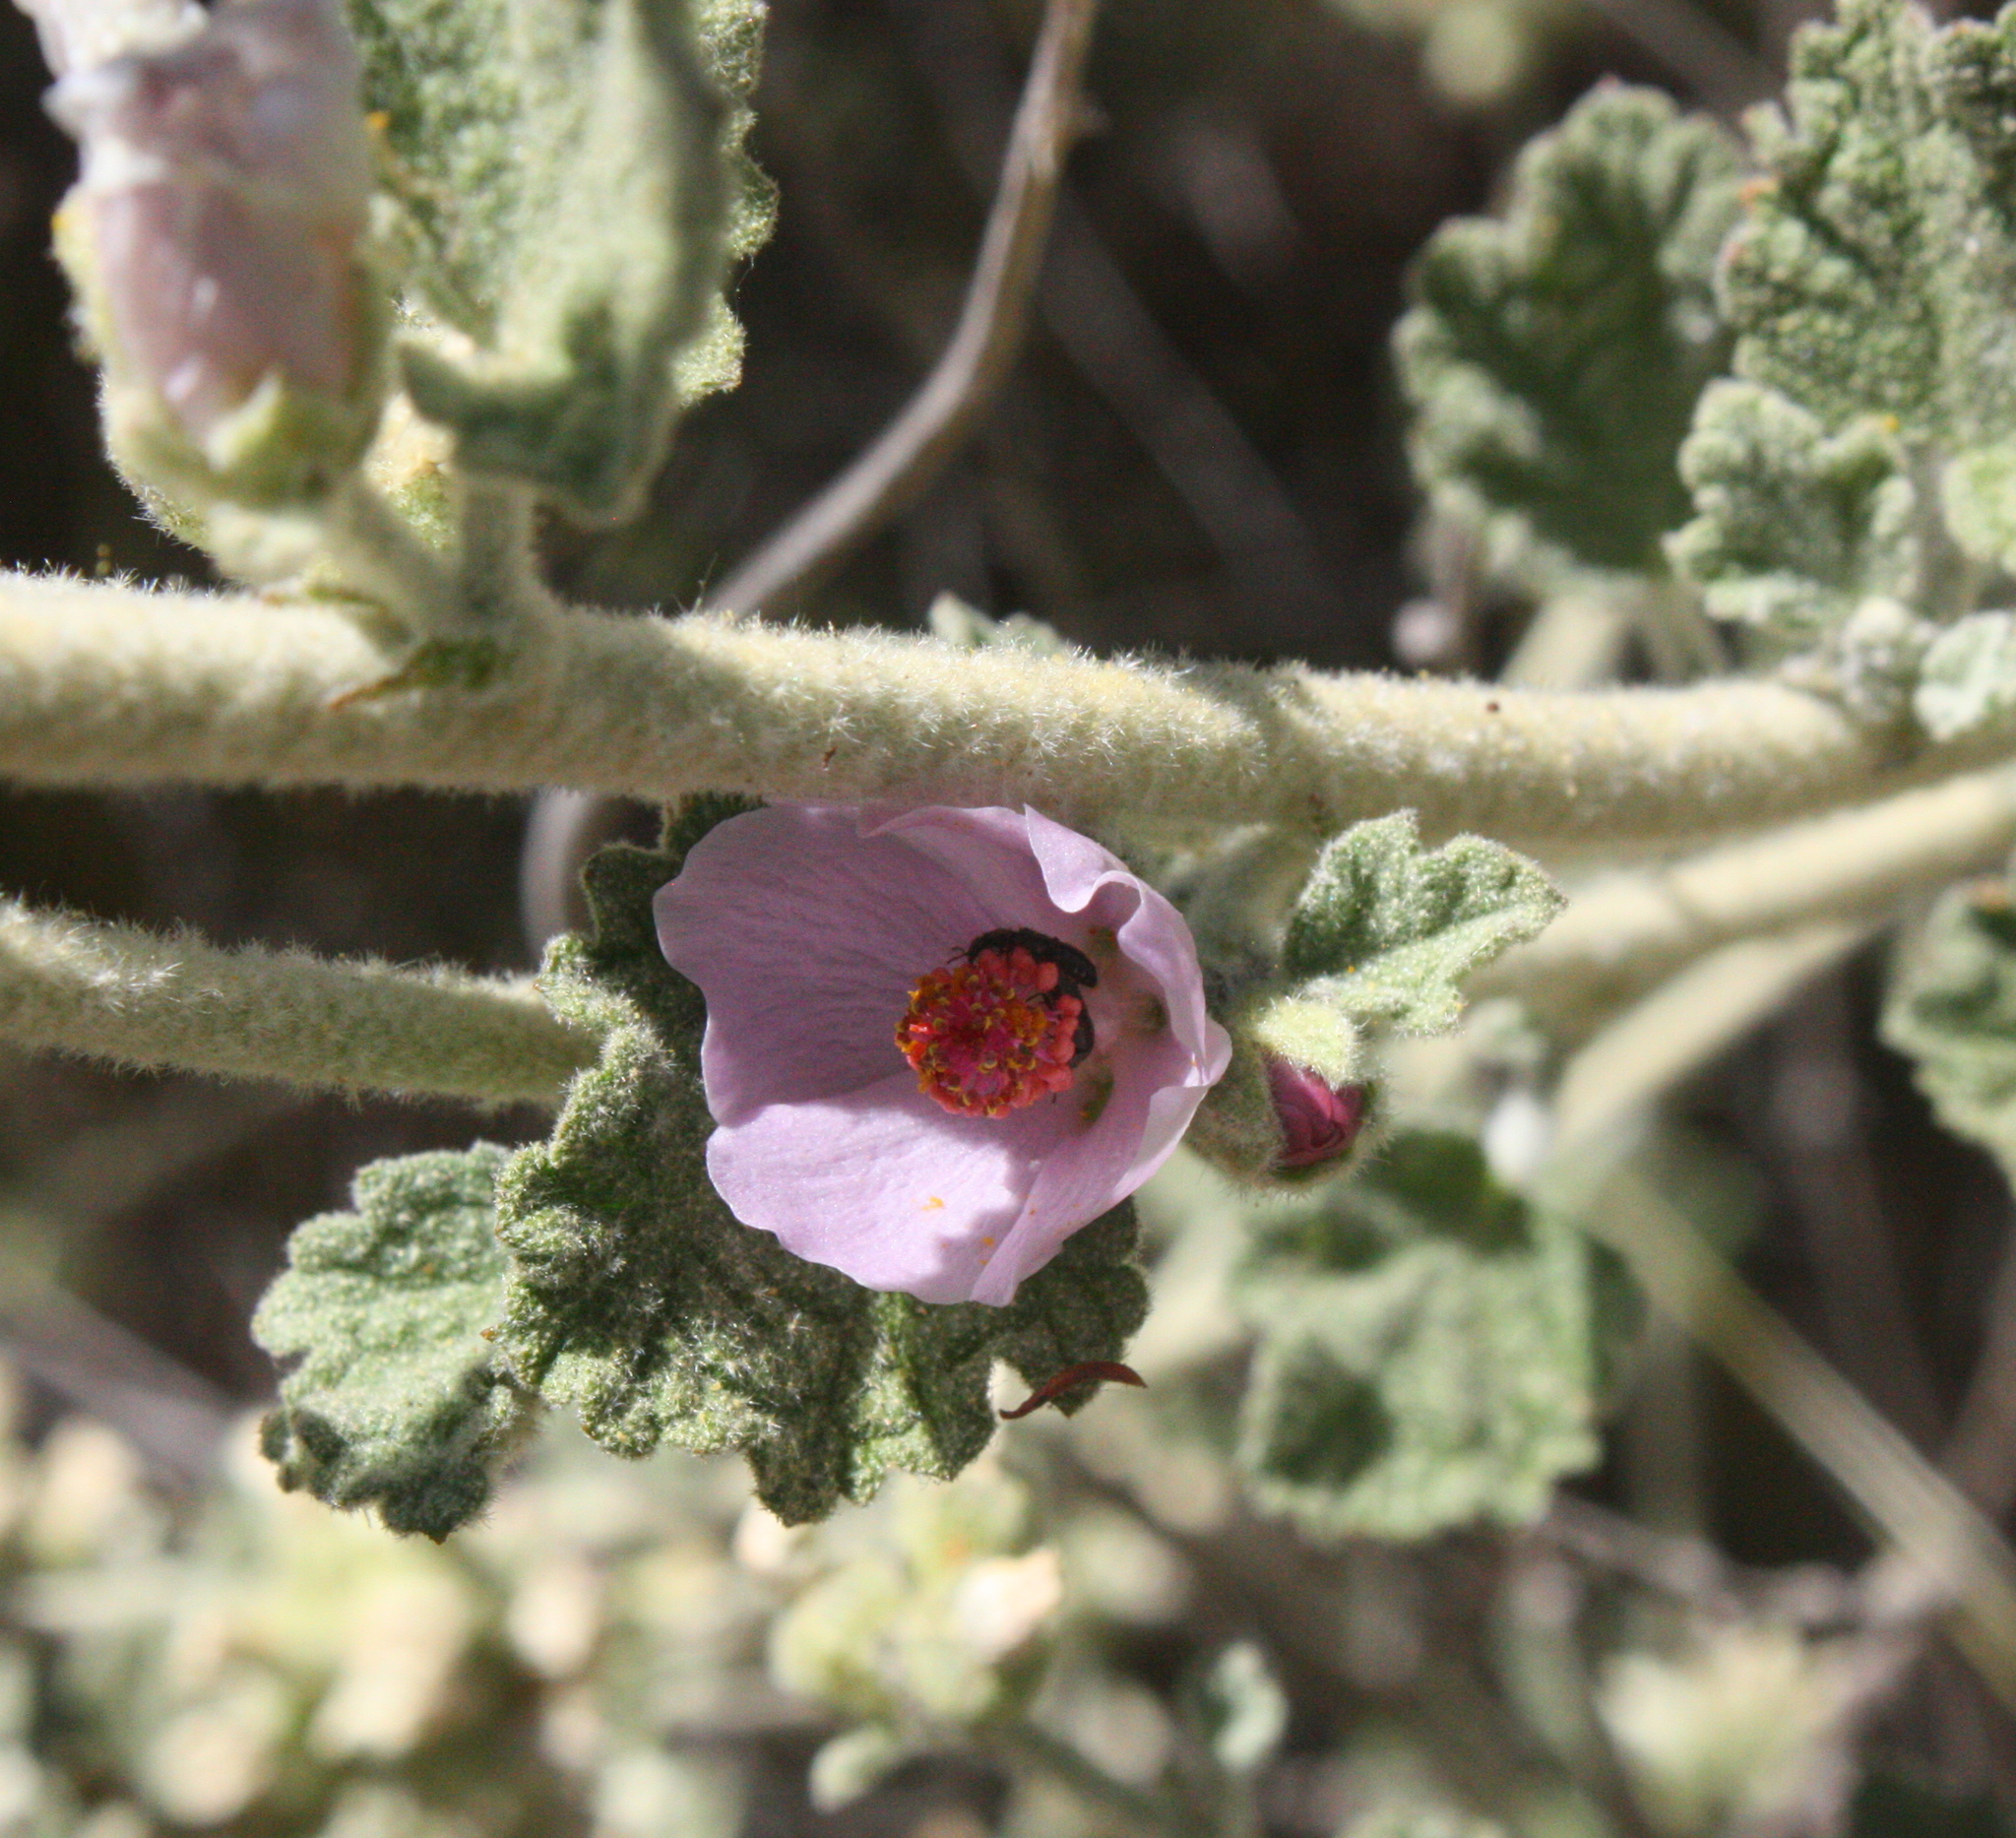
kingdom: Plantae
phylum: Tracheophyta
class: Magnoliopsida
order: Malvales
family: Malvaceae
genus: Malacothamnus
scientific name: Malacothamnus fasciculatus
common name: Sant cruz island bush-mallow
